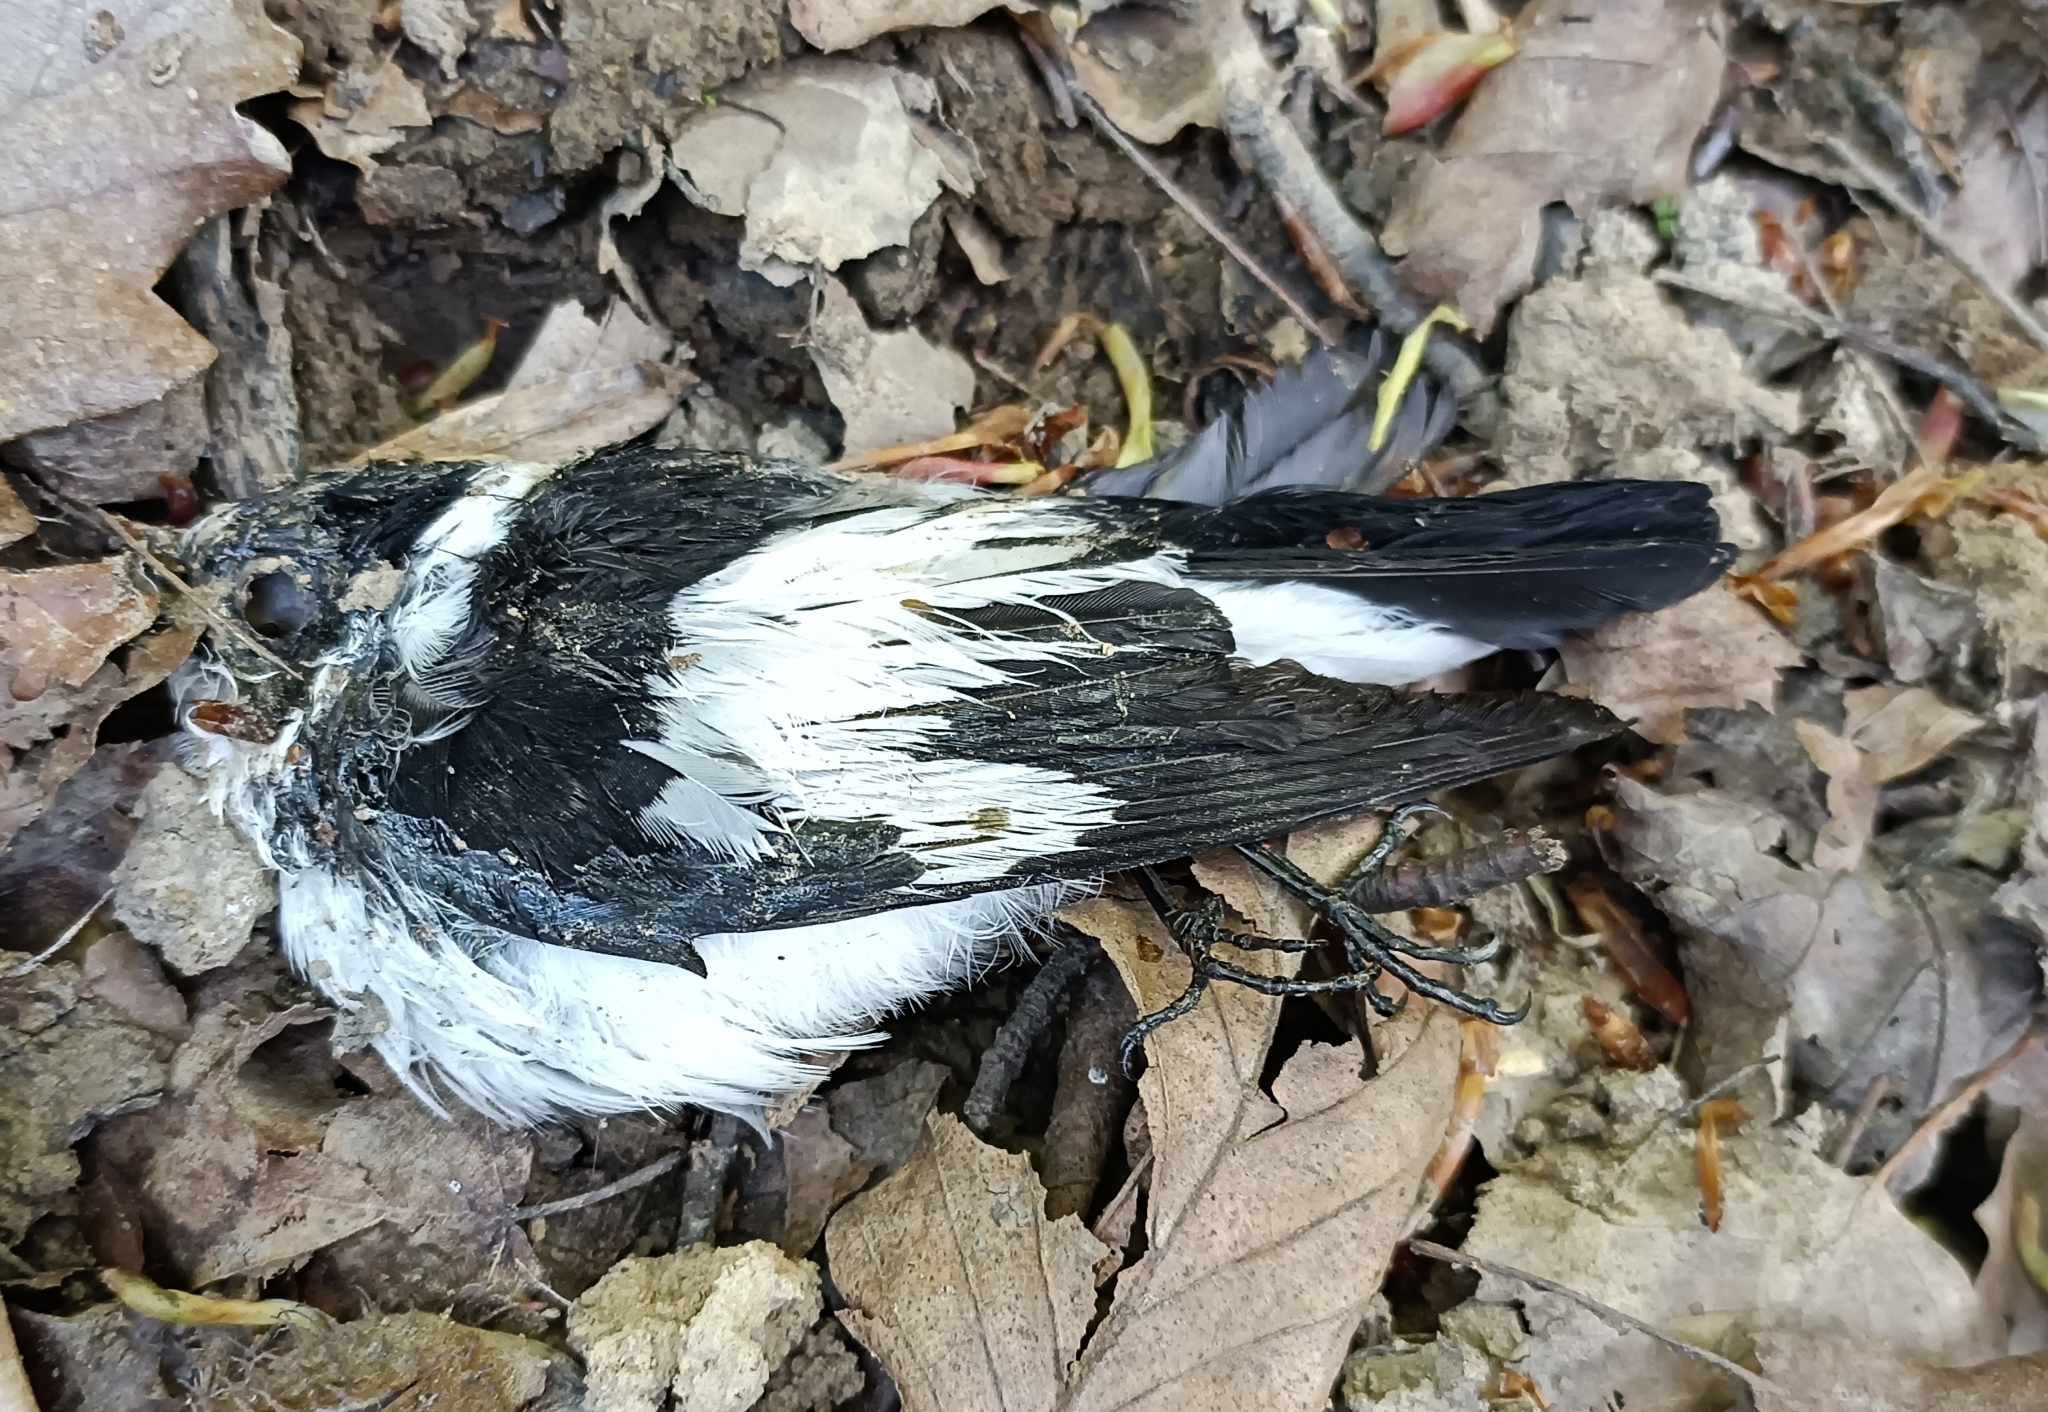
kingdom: Animalia
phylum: Chordata
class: Aves
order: Passeriformes
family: Muscicapidae
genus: Ficedula
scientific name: Ficedula albicollis
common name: Collared flycatcher
